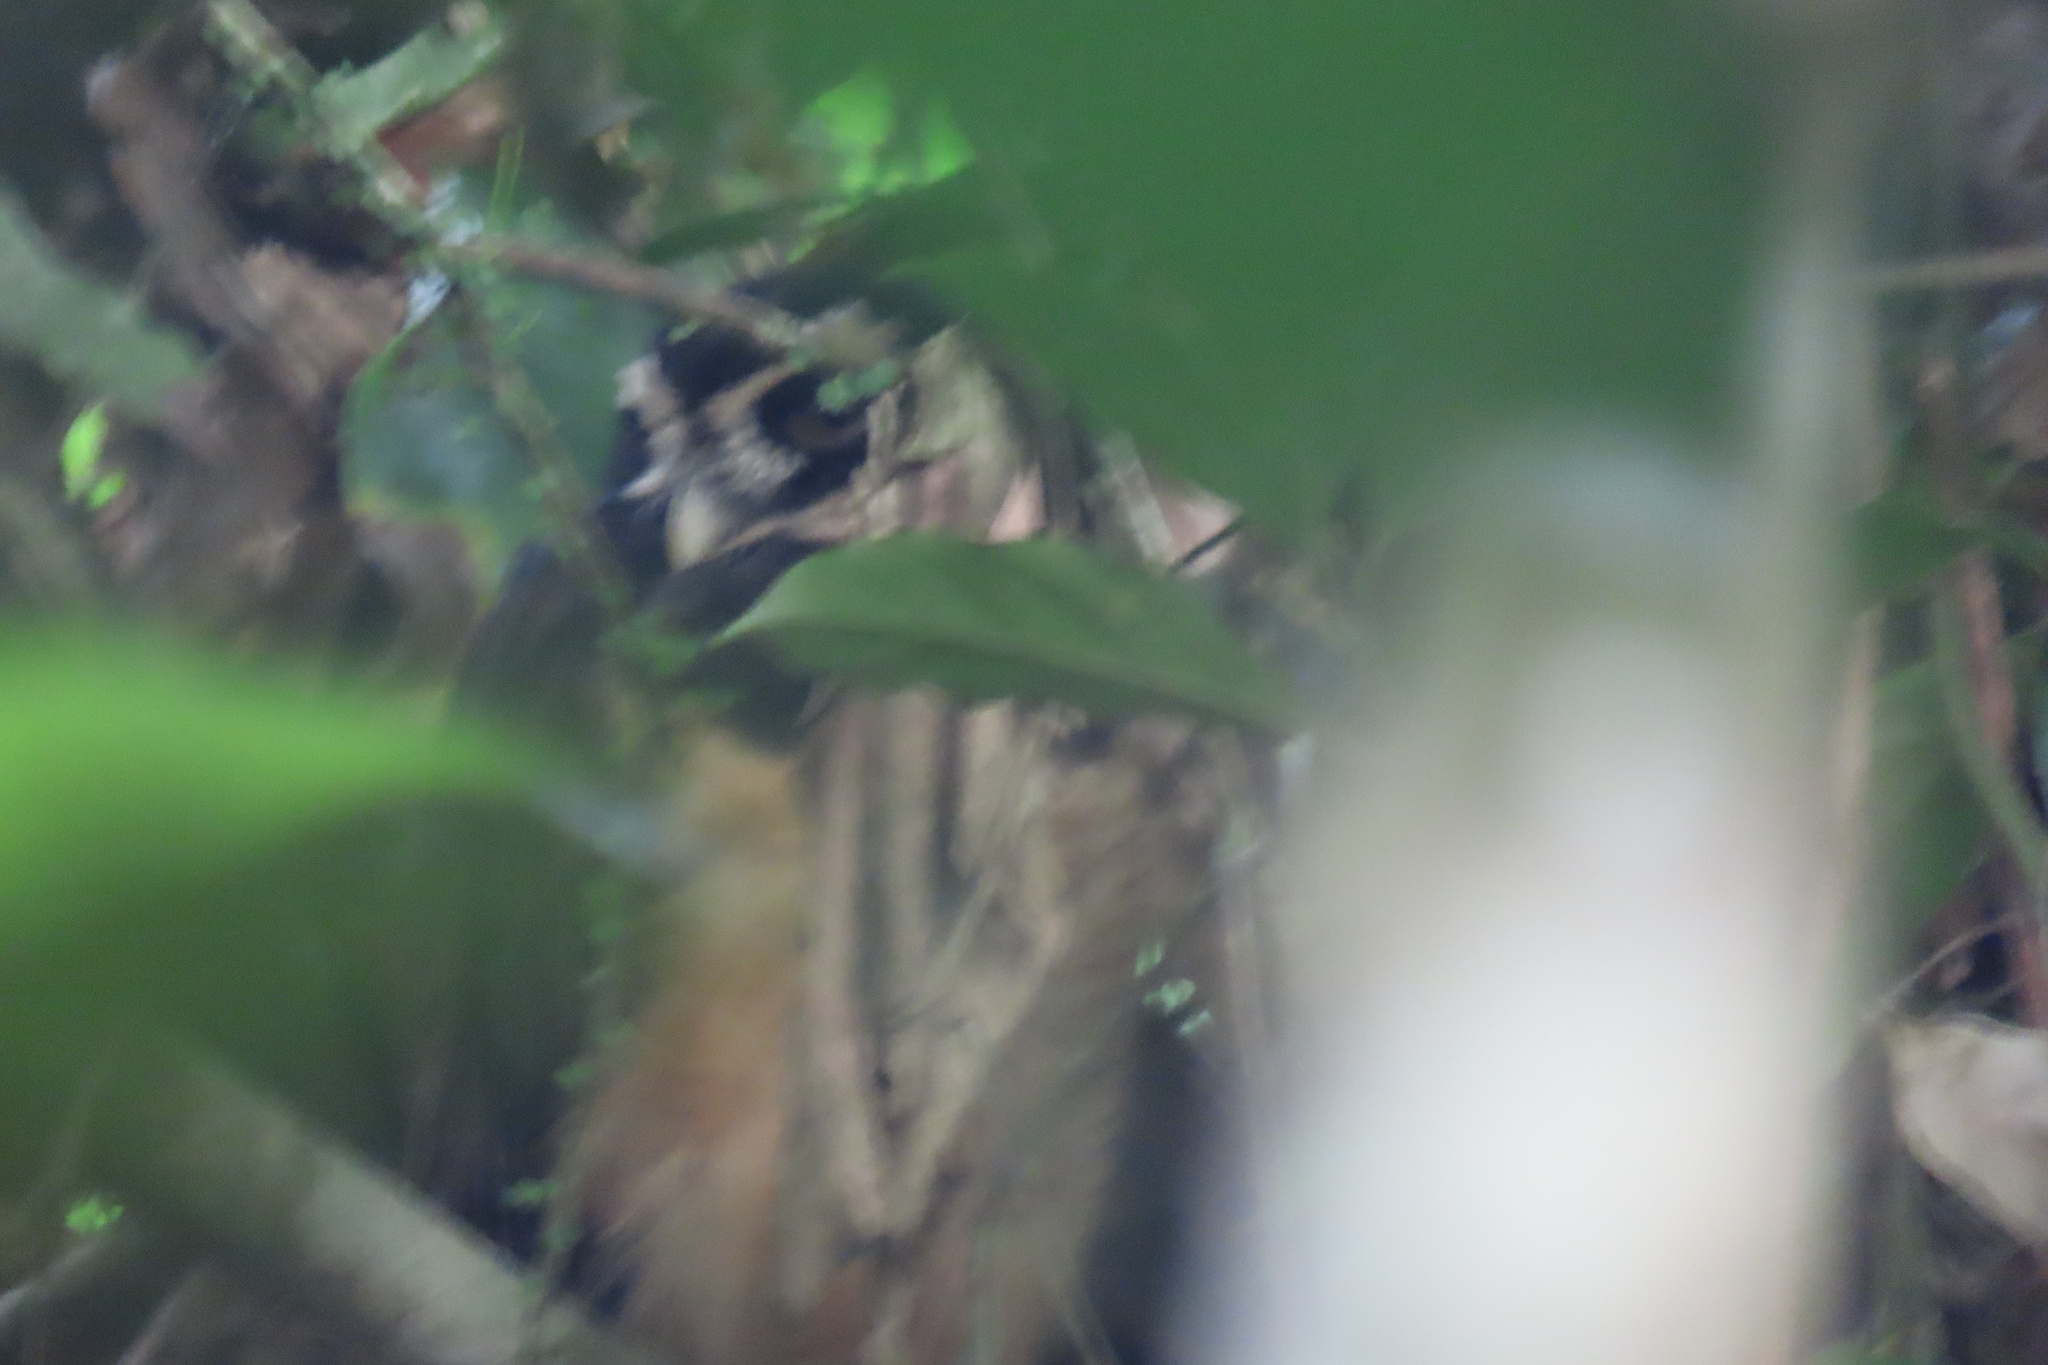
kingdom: Animalia
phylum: Chordata
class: Aves
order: Strigiformes
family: Strigidae
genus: Pulsatrix
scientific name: Pulsatrix perspicillata
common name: Spectacled owl
